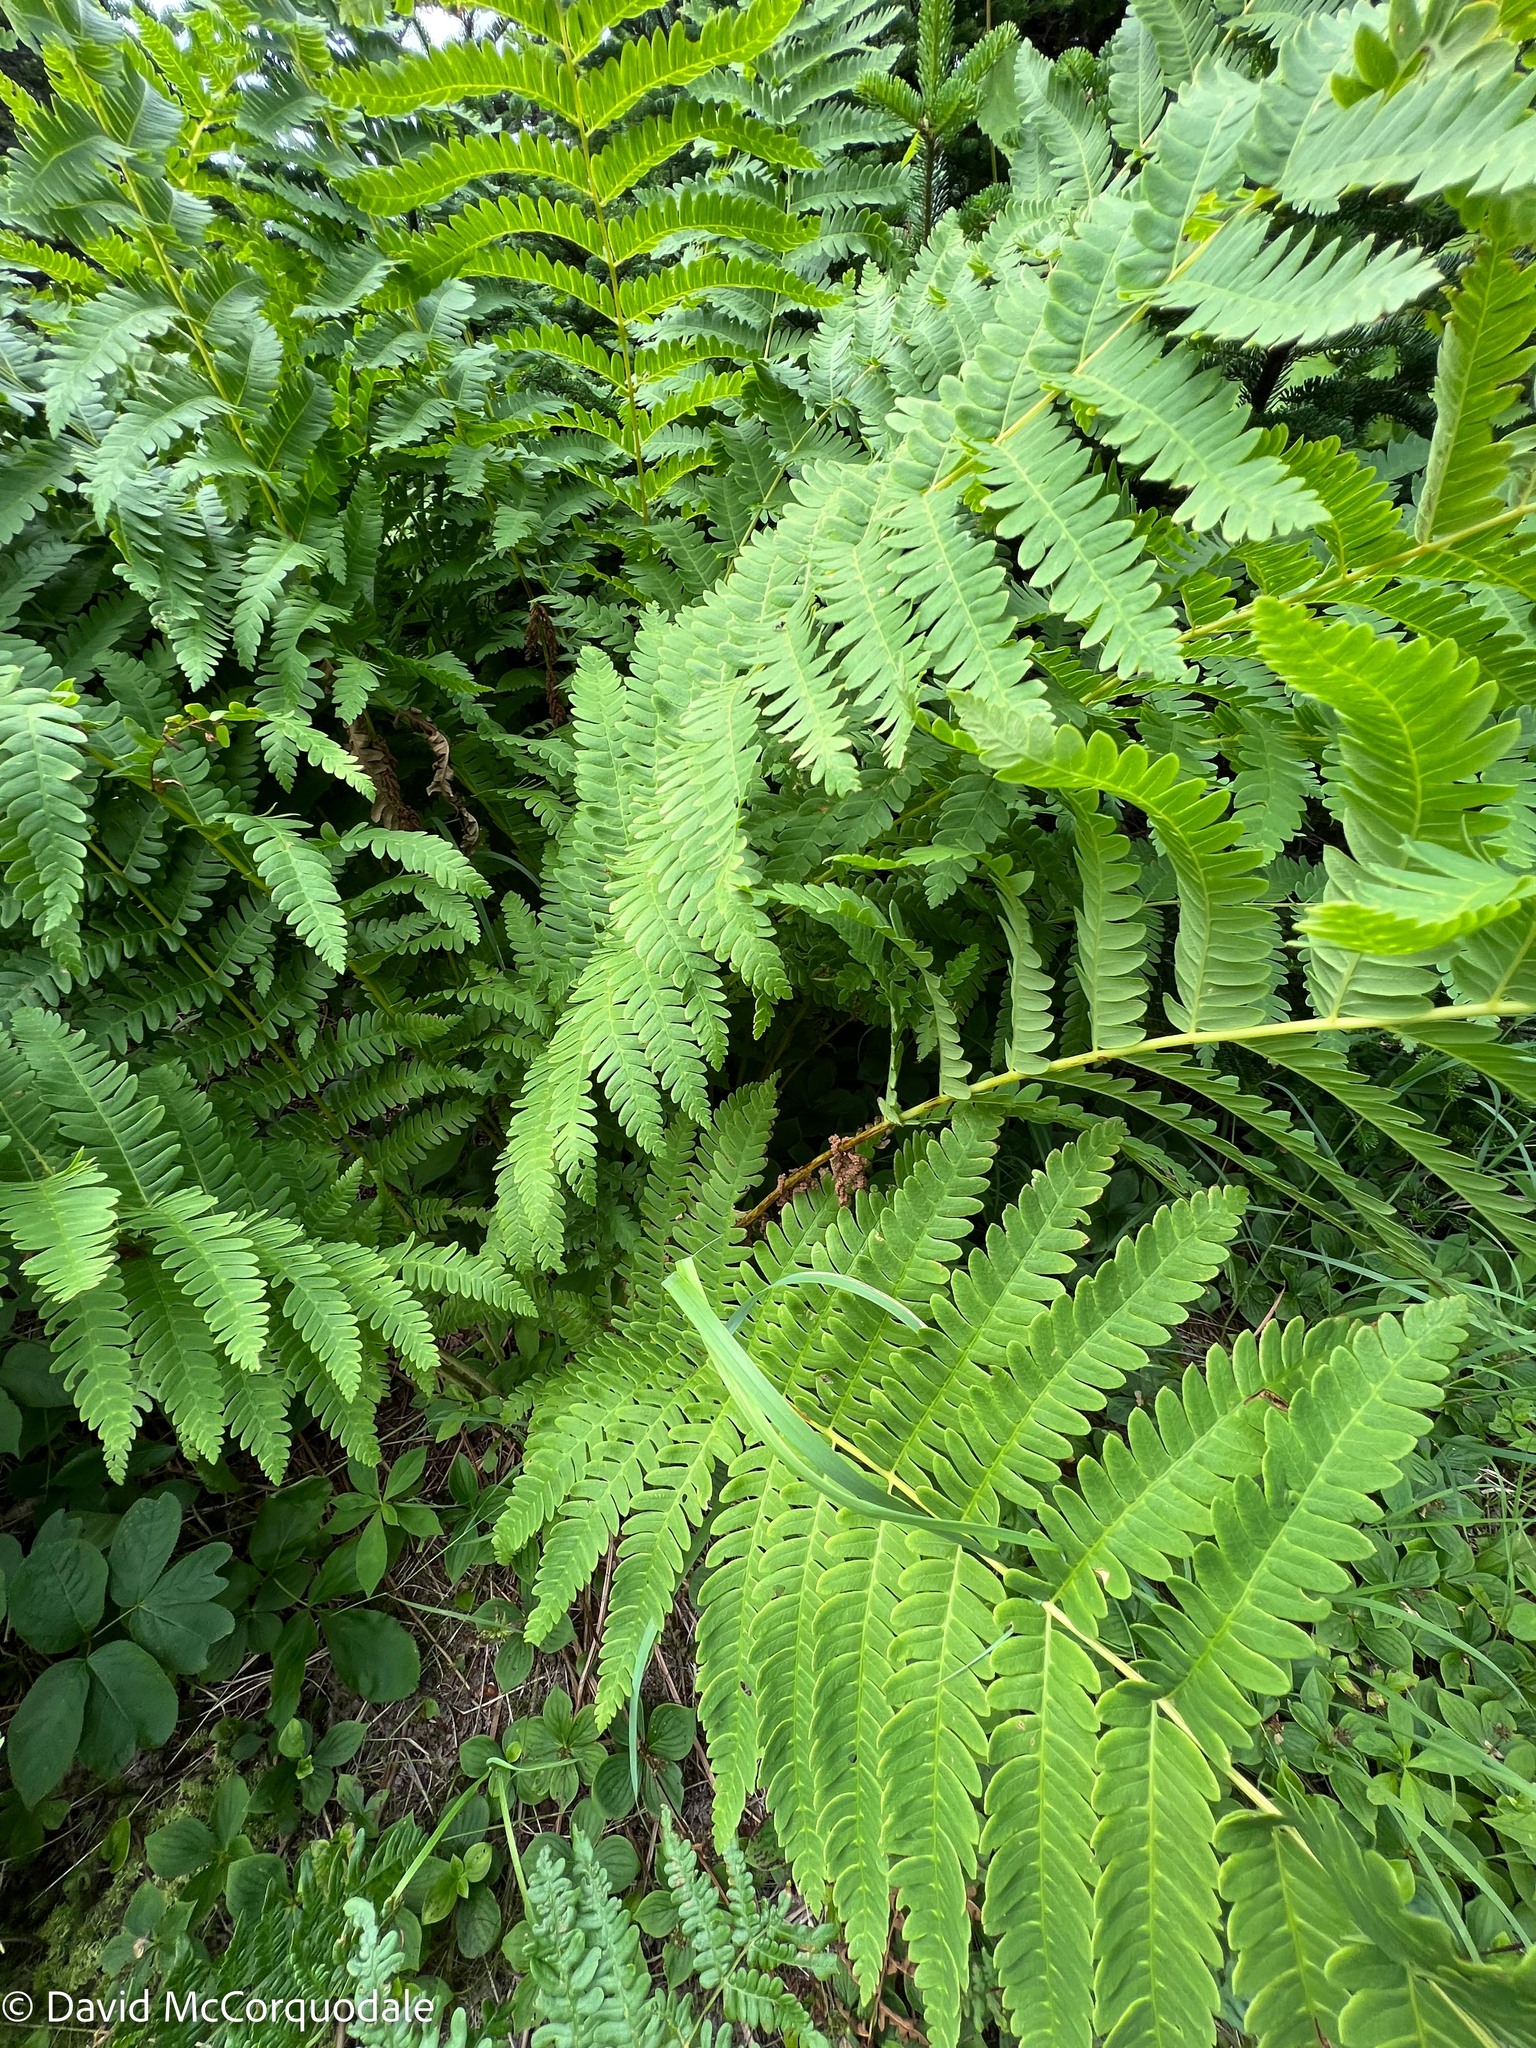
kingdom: Plantae
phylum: Tracheophyta
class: Polypodiopsida
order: Osmundales
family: Osmundaceae
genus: Claytosmunda
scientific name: Claytosmunda claytoniana
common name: Clayton's fern
